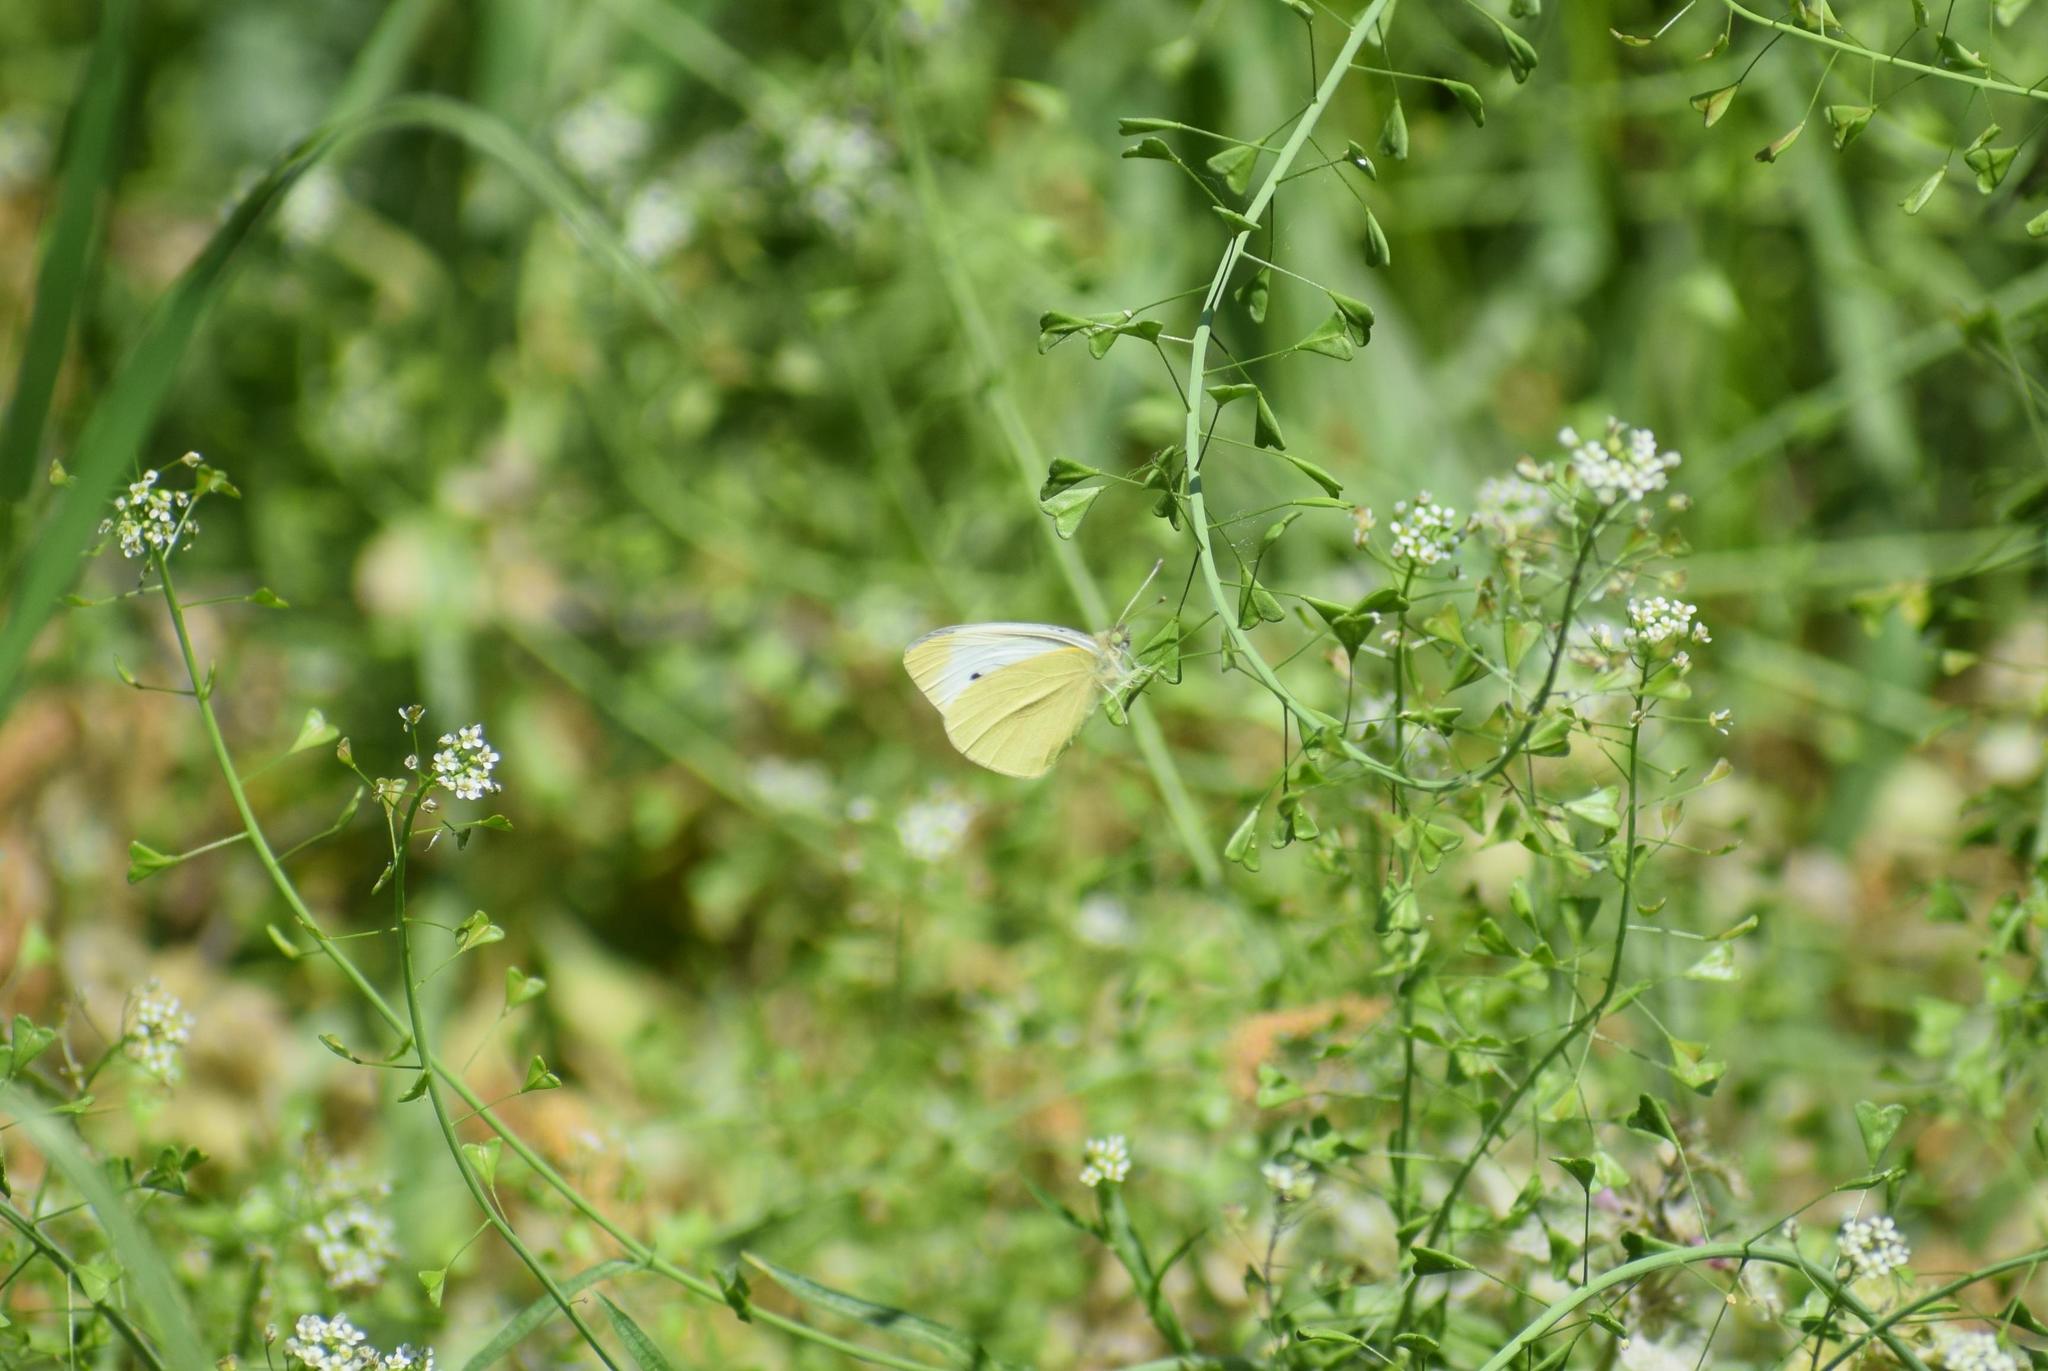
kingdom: Animalia
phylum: Arthropoda
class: Insecta
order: Lepidoptera
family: Pieridae
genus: Pieris
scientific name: Pieris rapae
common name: Small white
